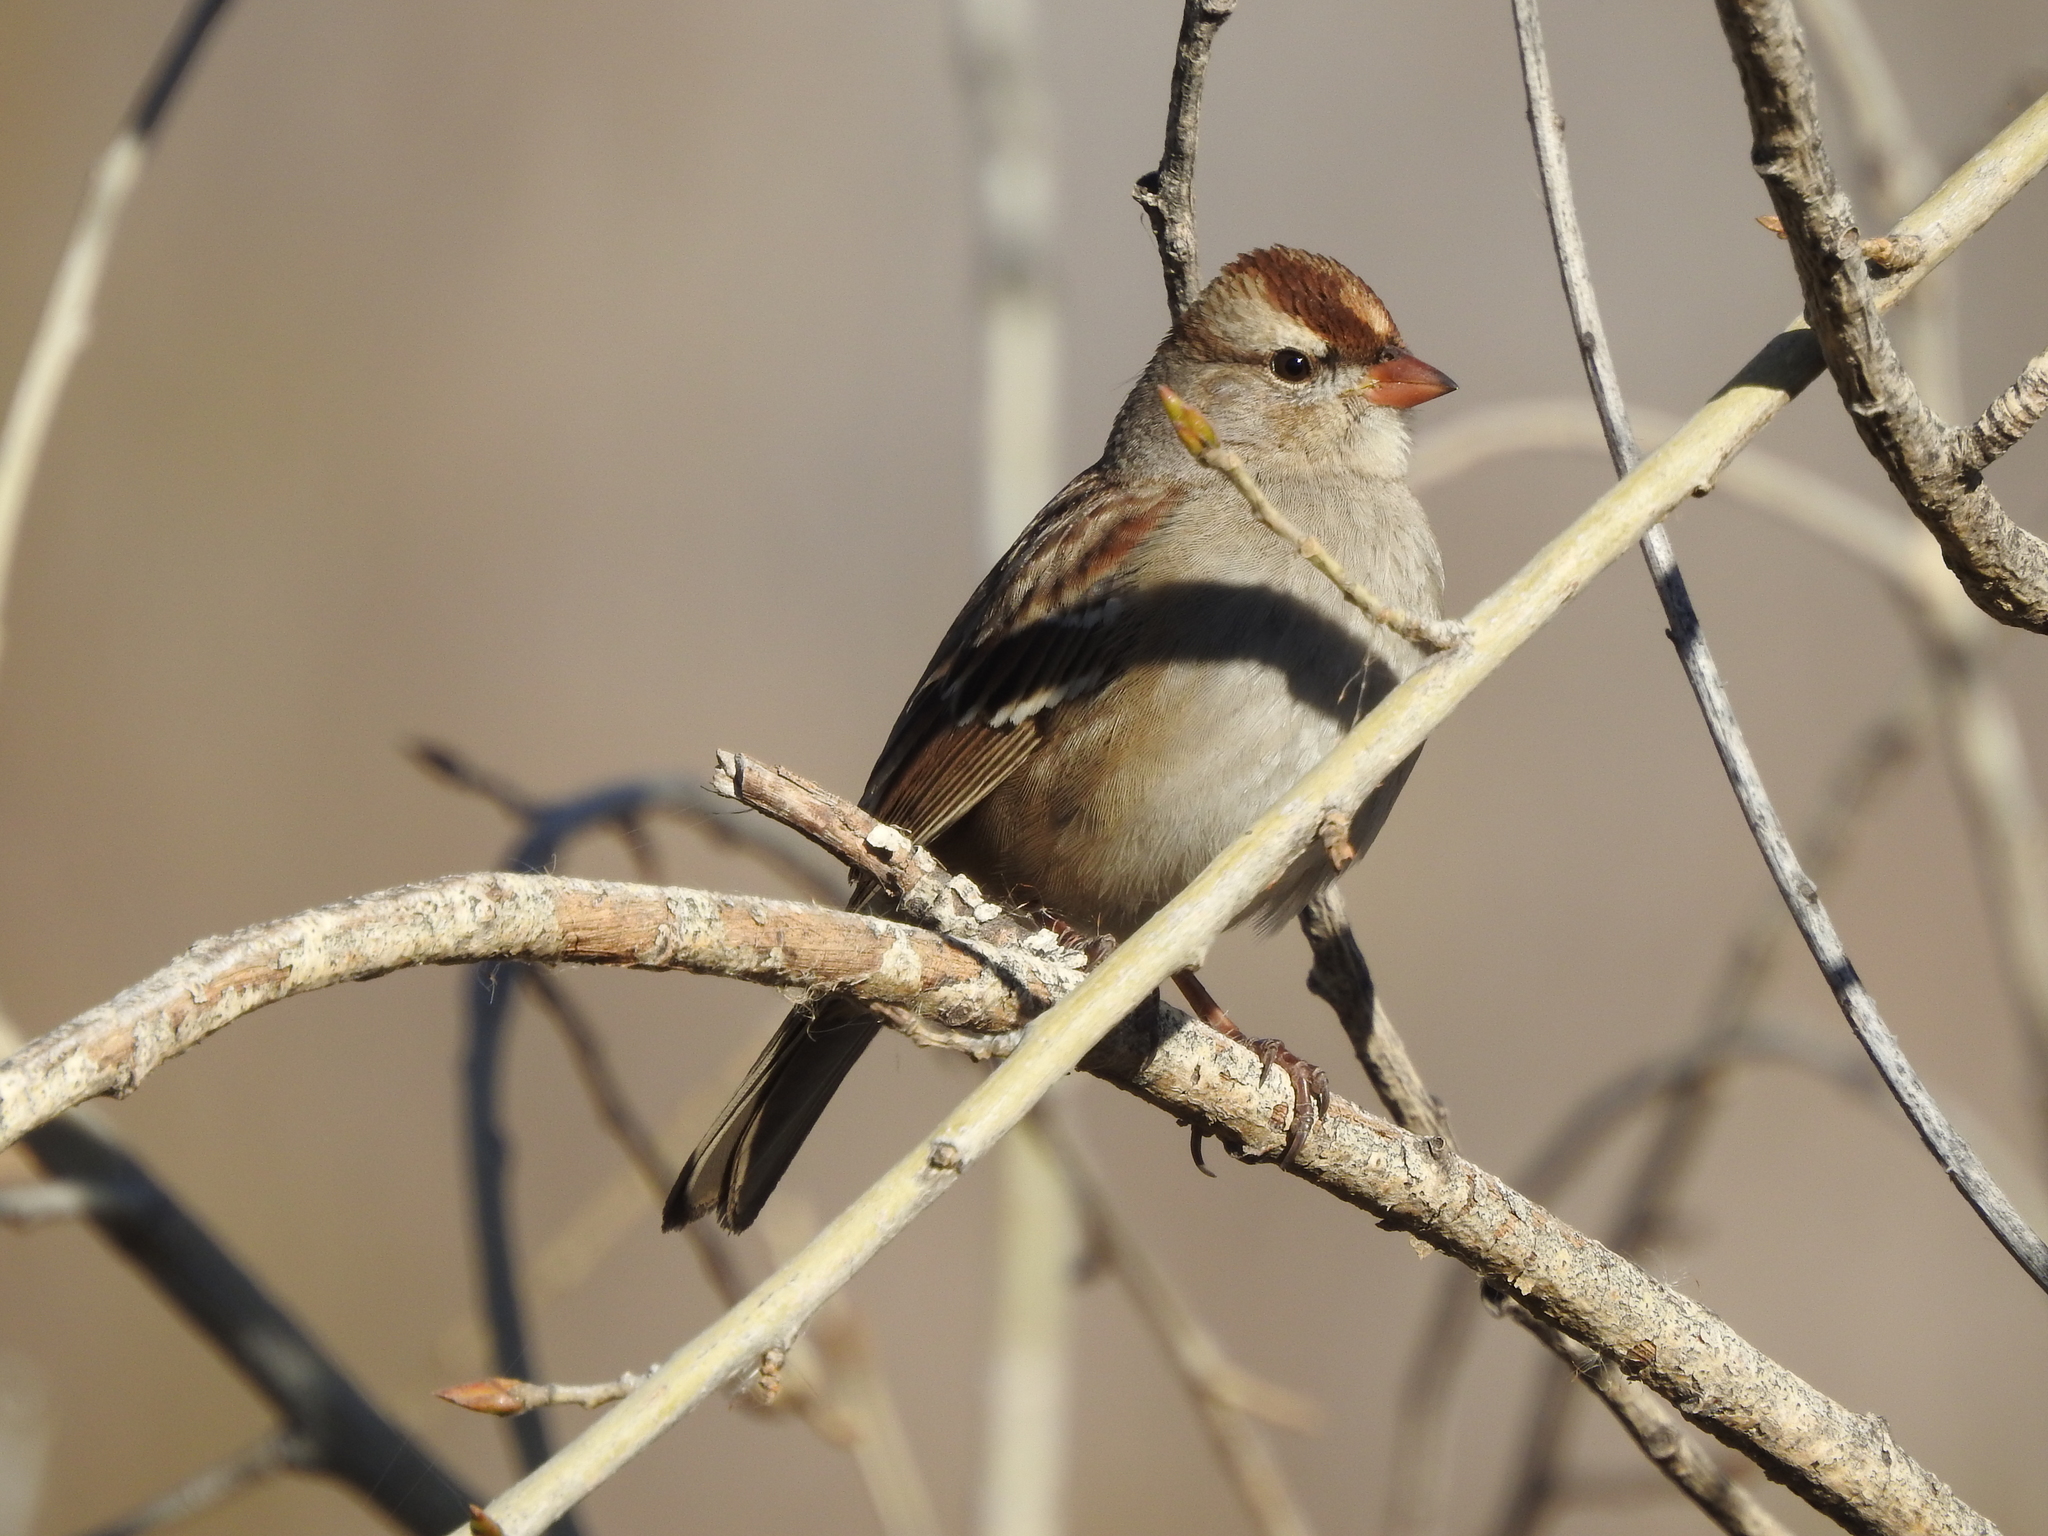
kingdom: Animalia
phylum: Chordata
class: Aves
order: Passeriformes
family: Passerellidae
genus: Zonotrichia
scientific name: Zonotrichia leucophrys
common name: White-crowned sparrow
